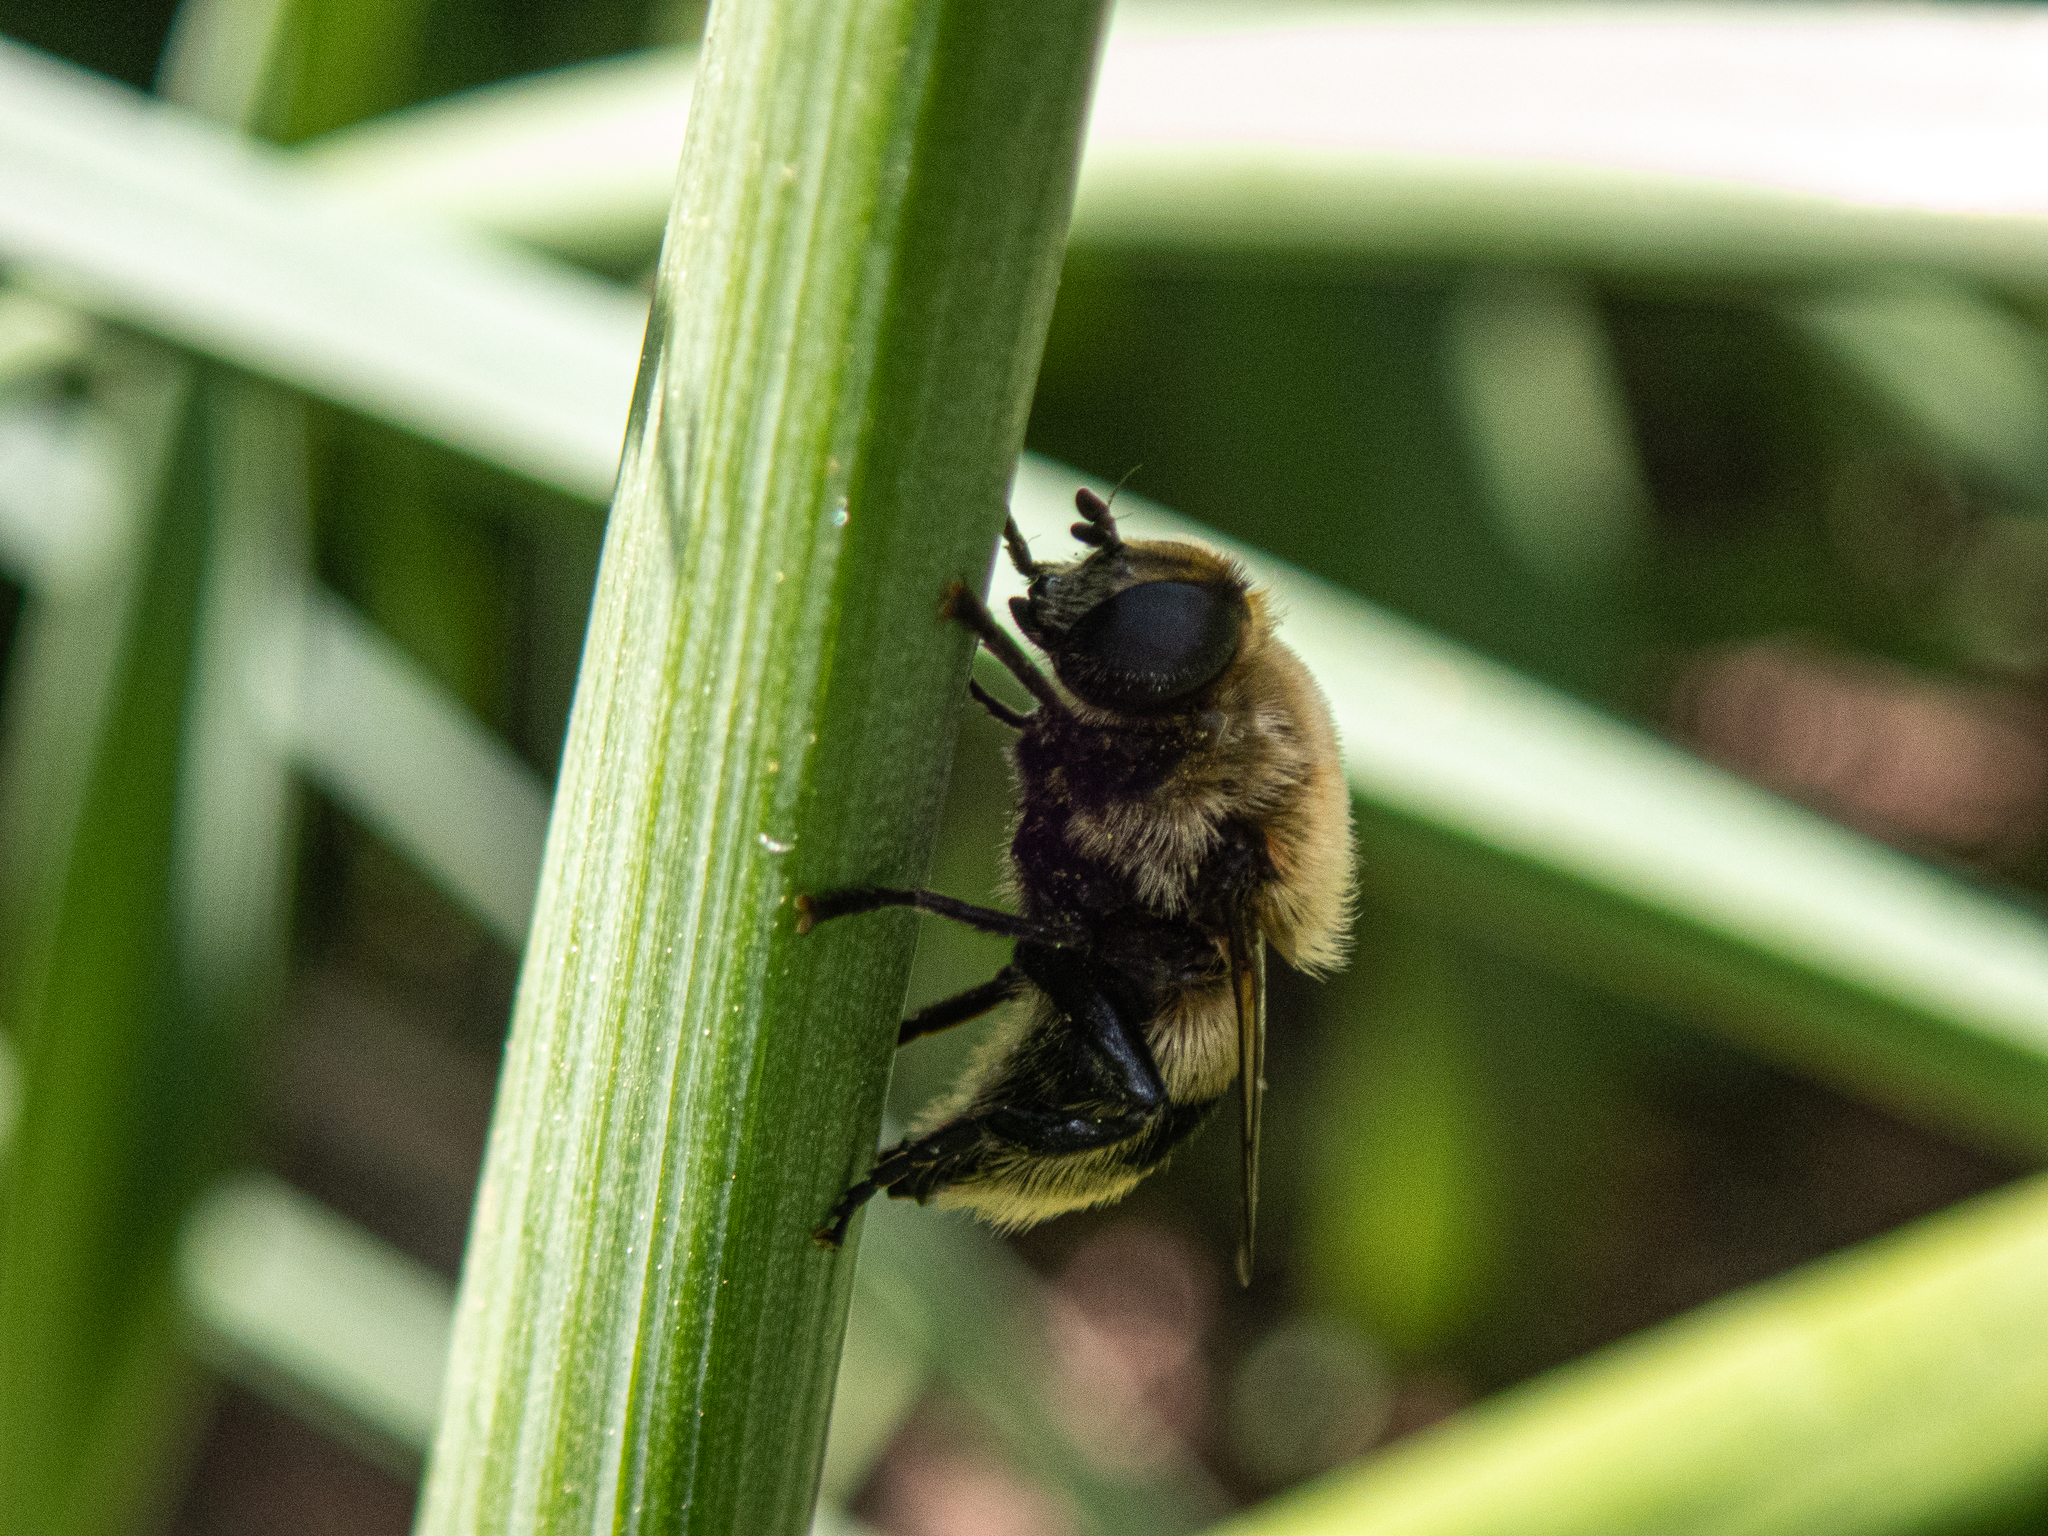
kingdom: Animalia
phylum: Arthropoda
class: Insecta
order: Diptera
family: Syrphidae
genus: Merodon
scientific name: Merodon equestris
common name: Greater bulb-fly
